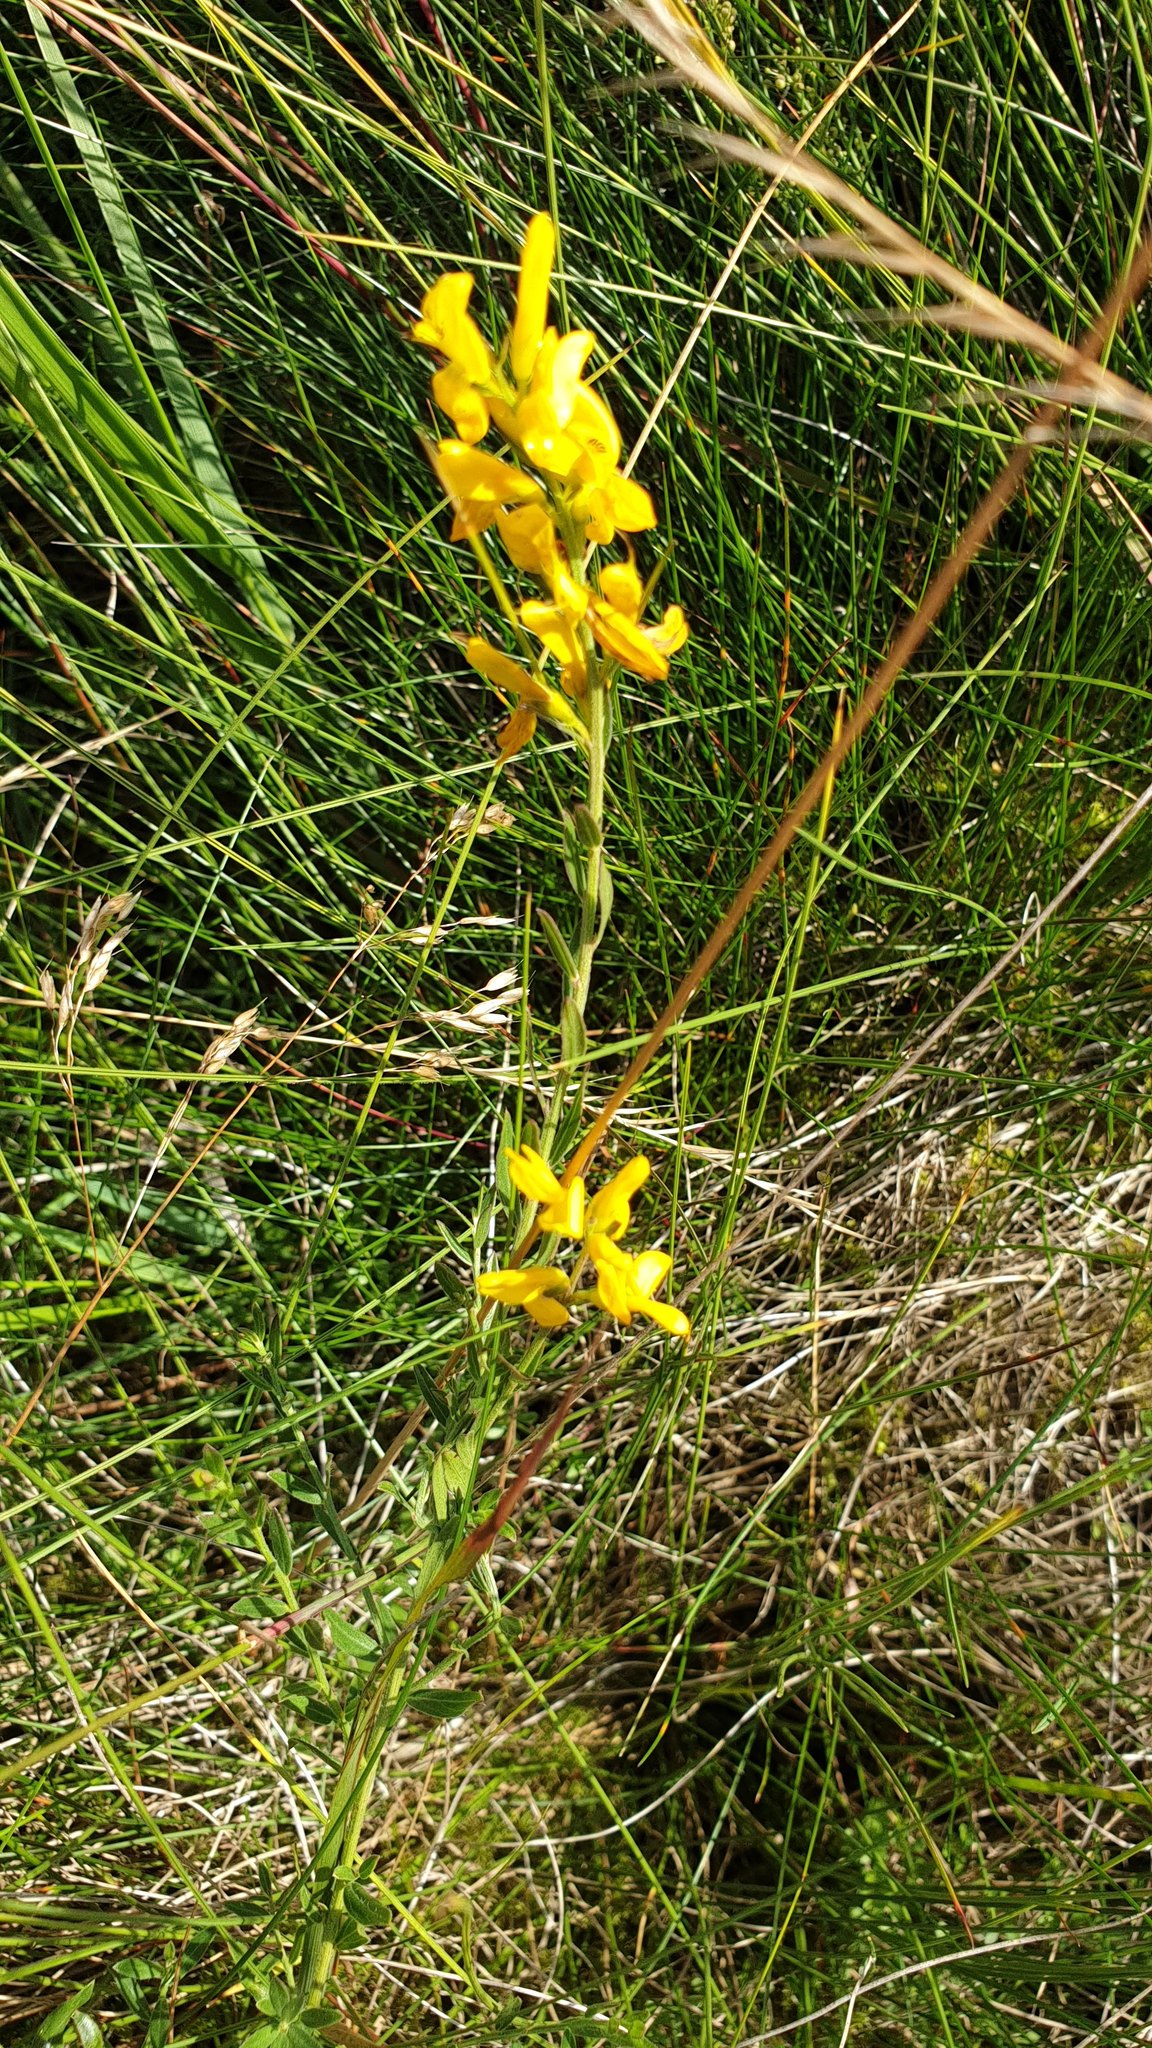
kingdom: Plantae
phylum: Tracheophyta
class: Magnoliopsida
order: Fabales
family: Fabaceae
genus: Genista
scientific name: Genista tinctoria
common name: Dyer's greenweed
